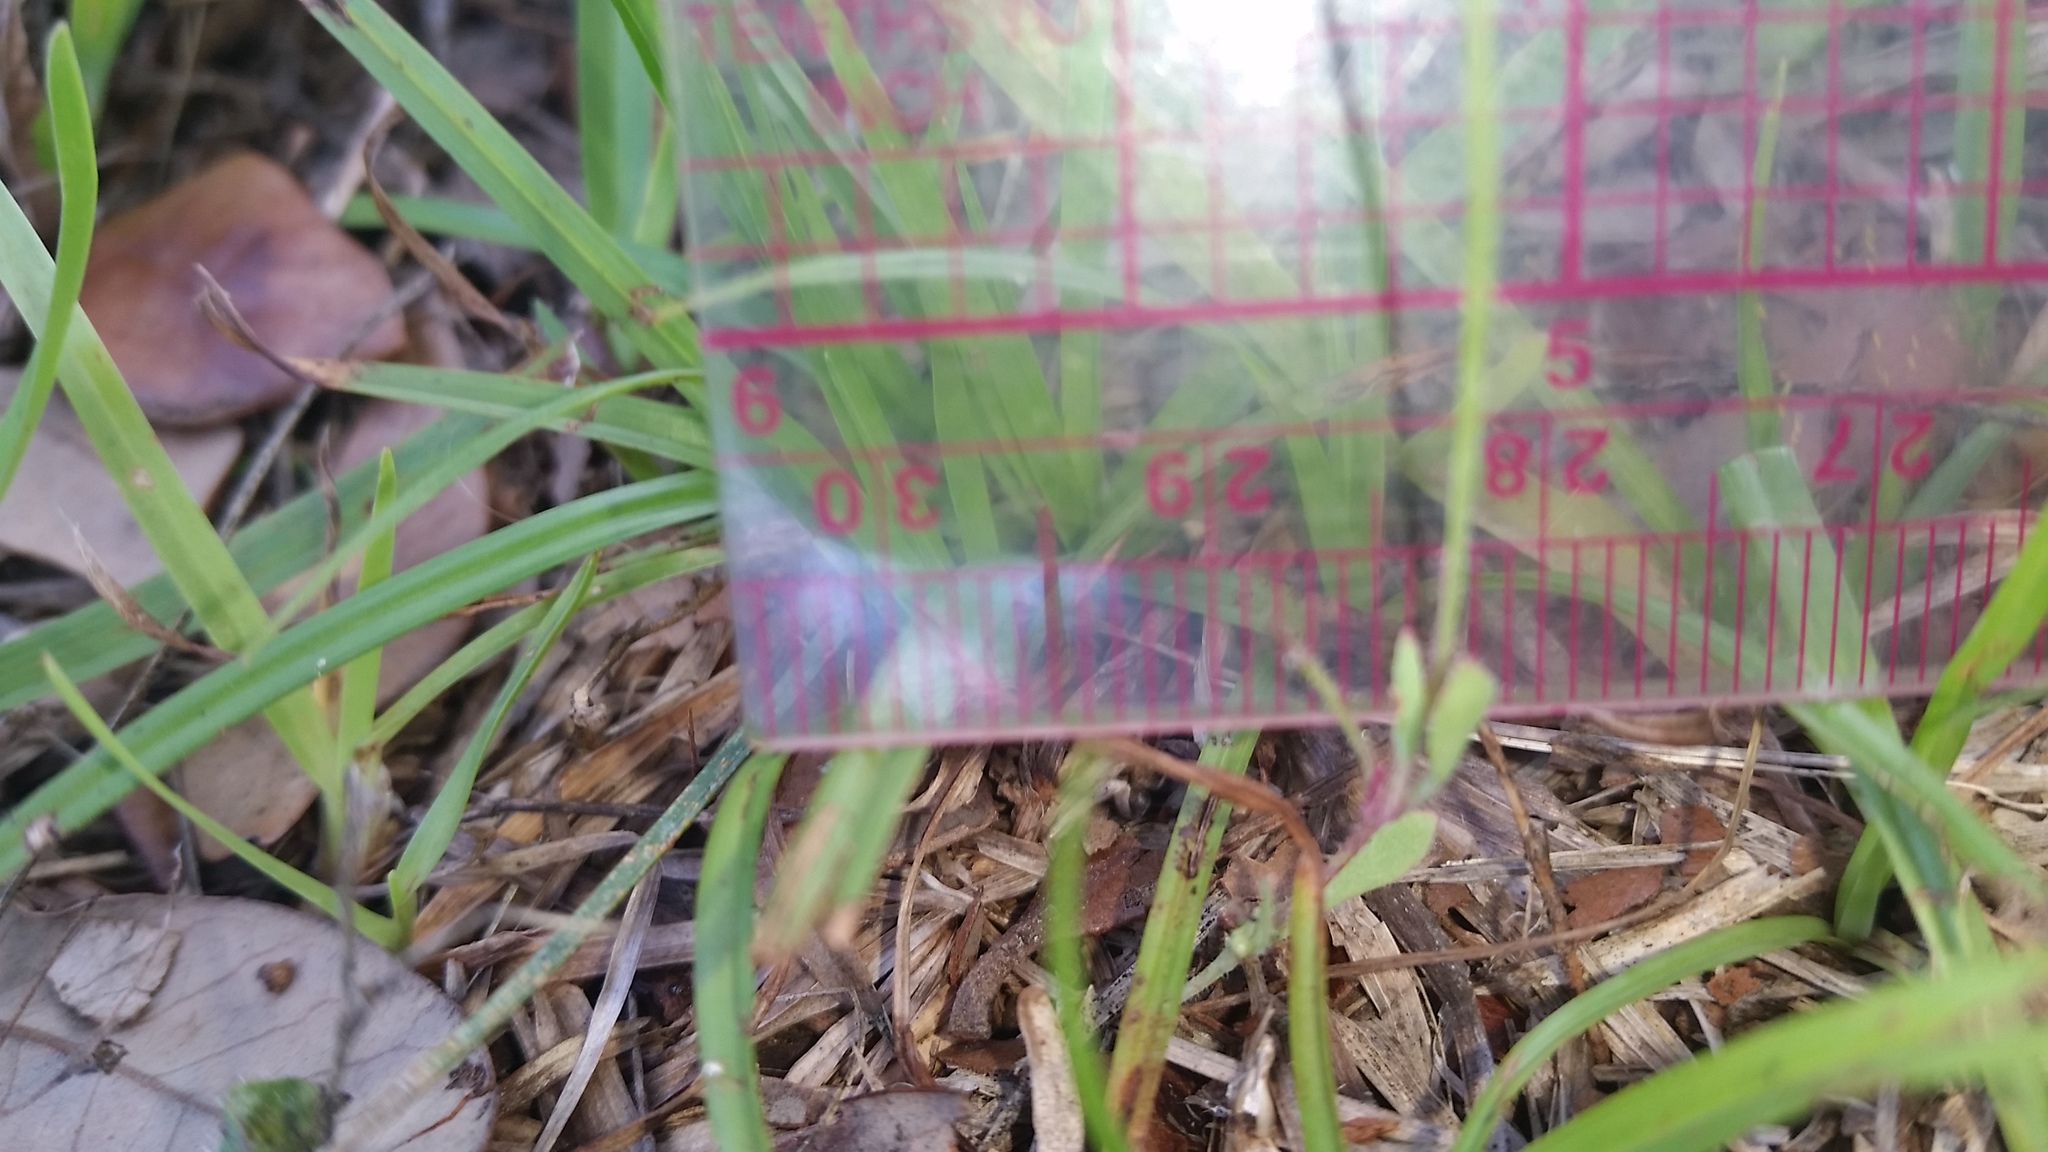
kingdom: Plantae
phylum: Tracheophyta
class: Magnoliopsida
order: Asterales
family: Asteraceae
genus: Krigia
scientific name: Krigia virginica
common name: Virginia dwarf-dandelion
